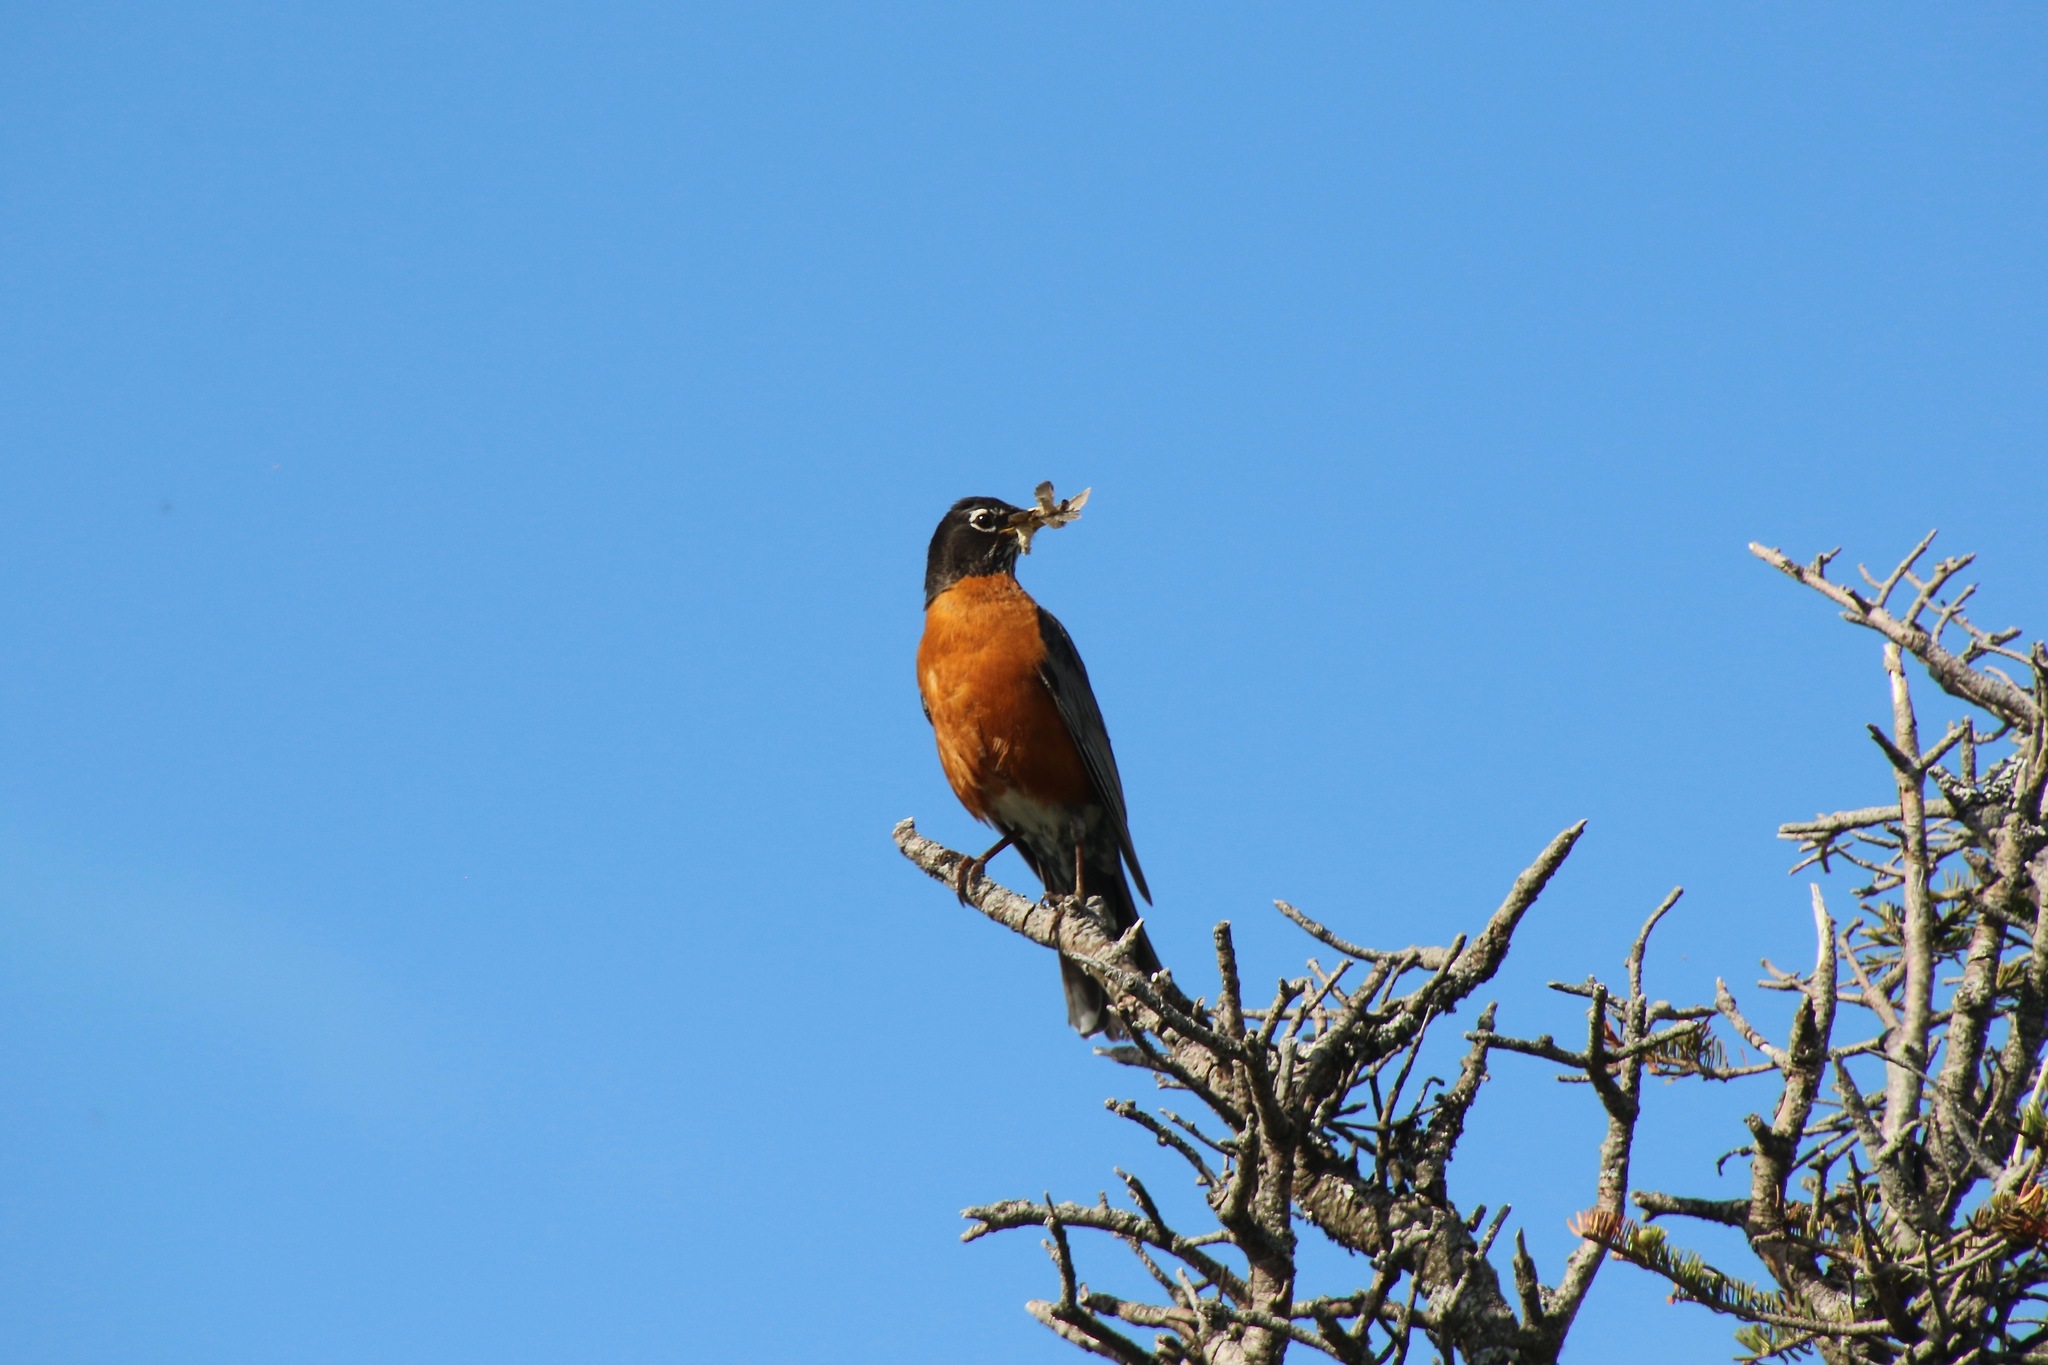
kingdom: Animalia
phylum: Chordata
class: Aves
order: Passeriformes
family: Turdidae
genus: Turdus
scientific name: Turdus migratorius
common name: American robin
